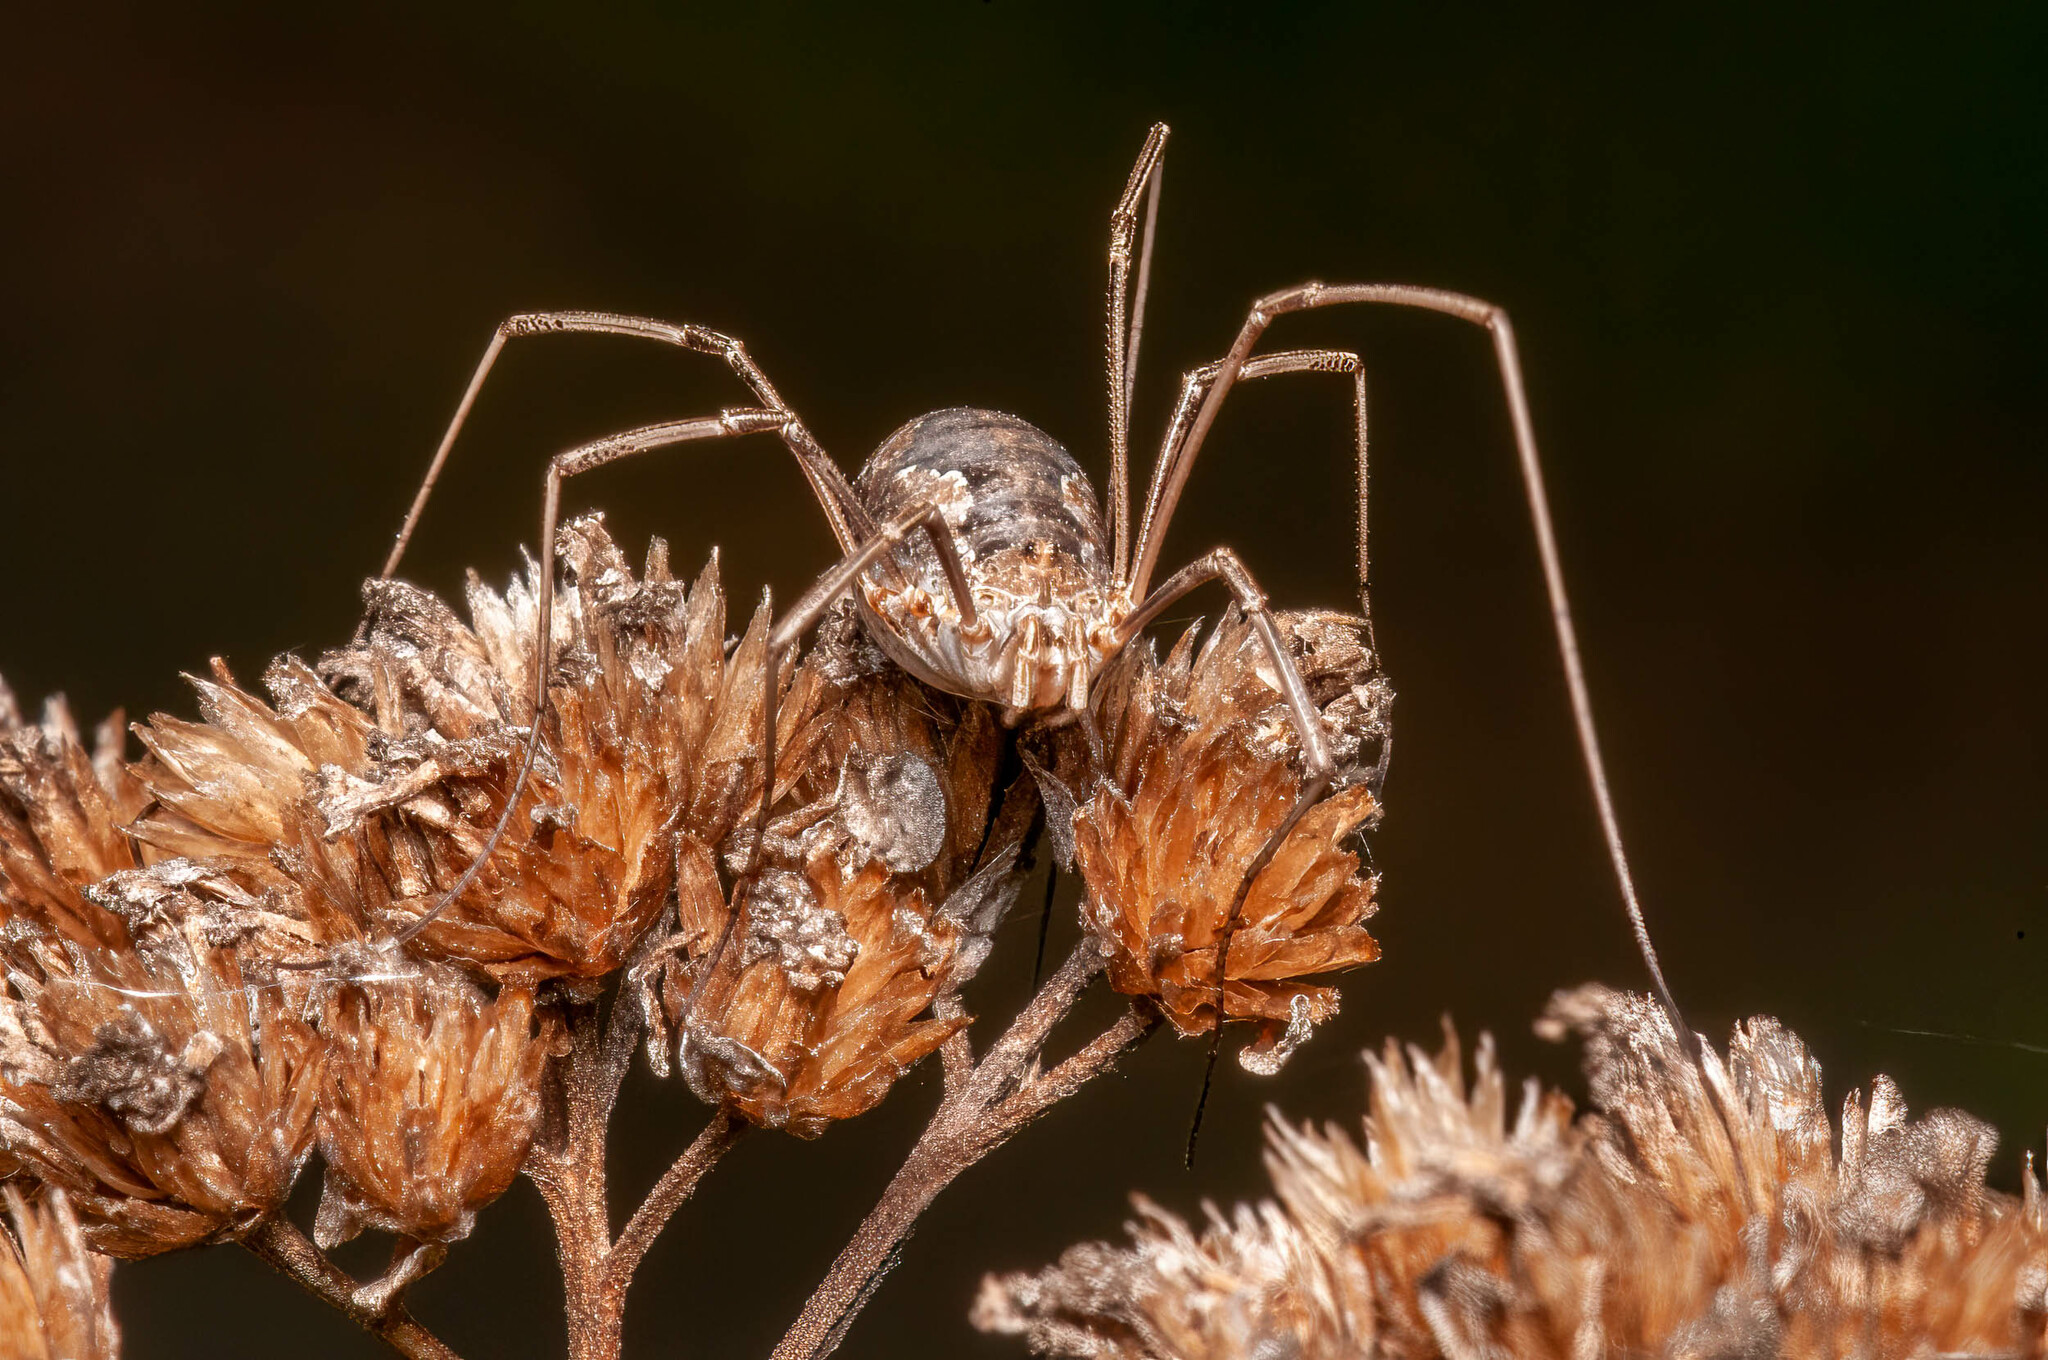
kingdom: Animalia
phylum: Arthropoda
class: Arachnida
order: Opiliones
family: Phalangiidae
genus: Phalangium
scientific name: Phalangium opilio
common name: Daddy longleg
